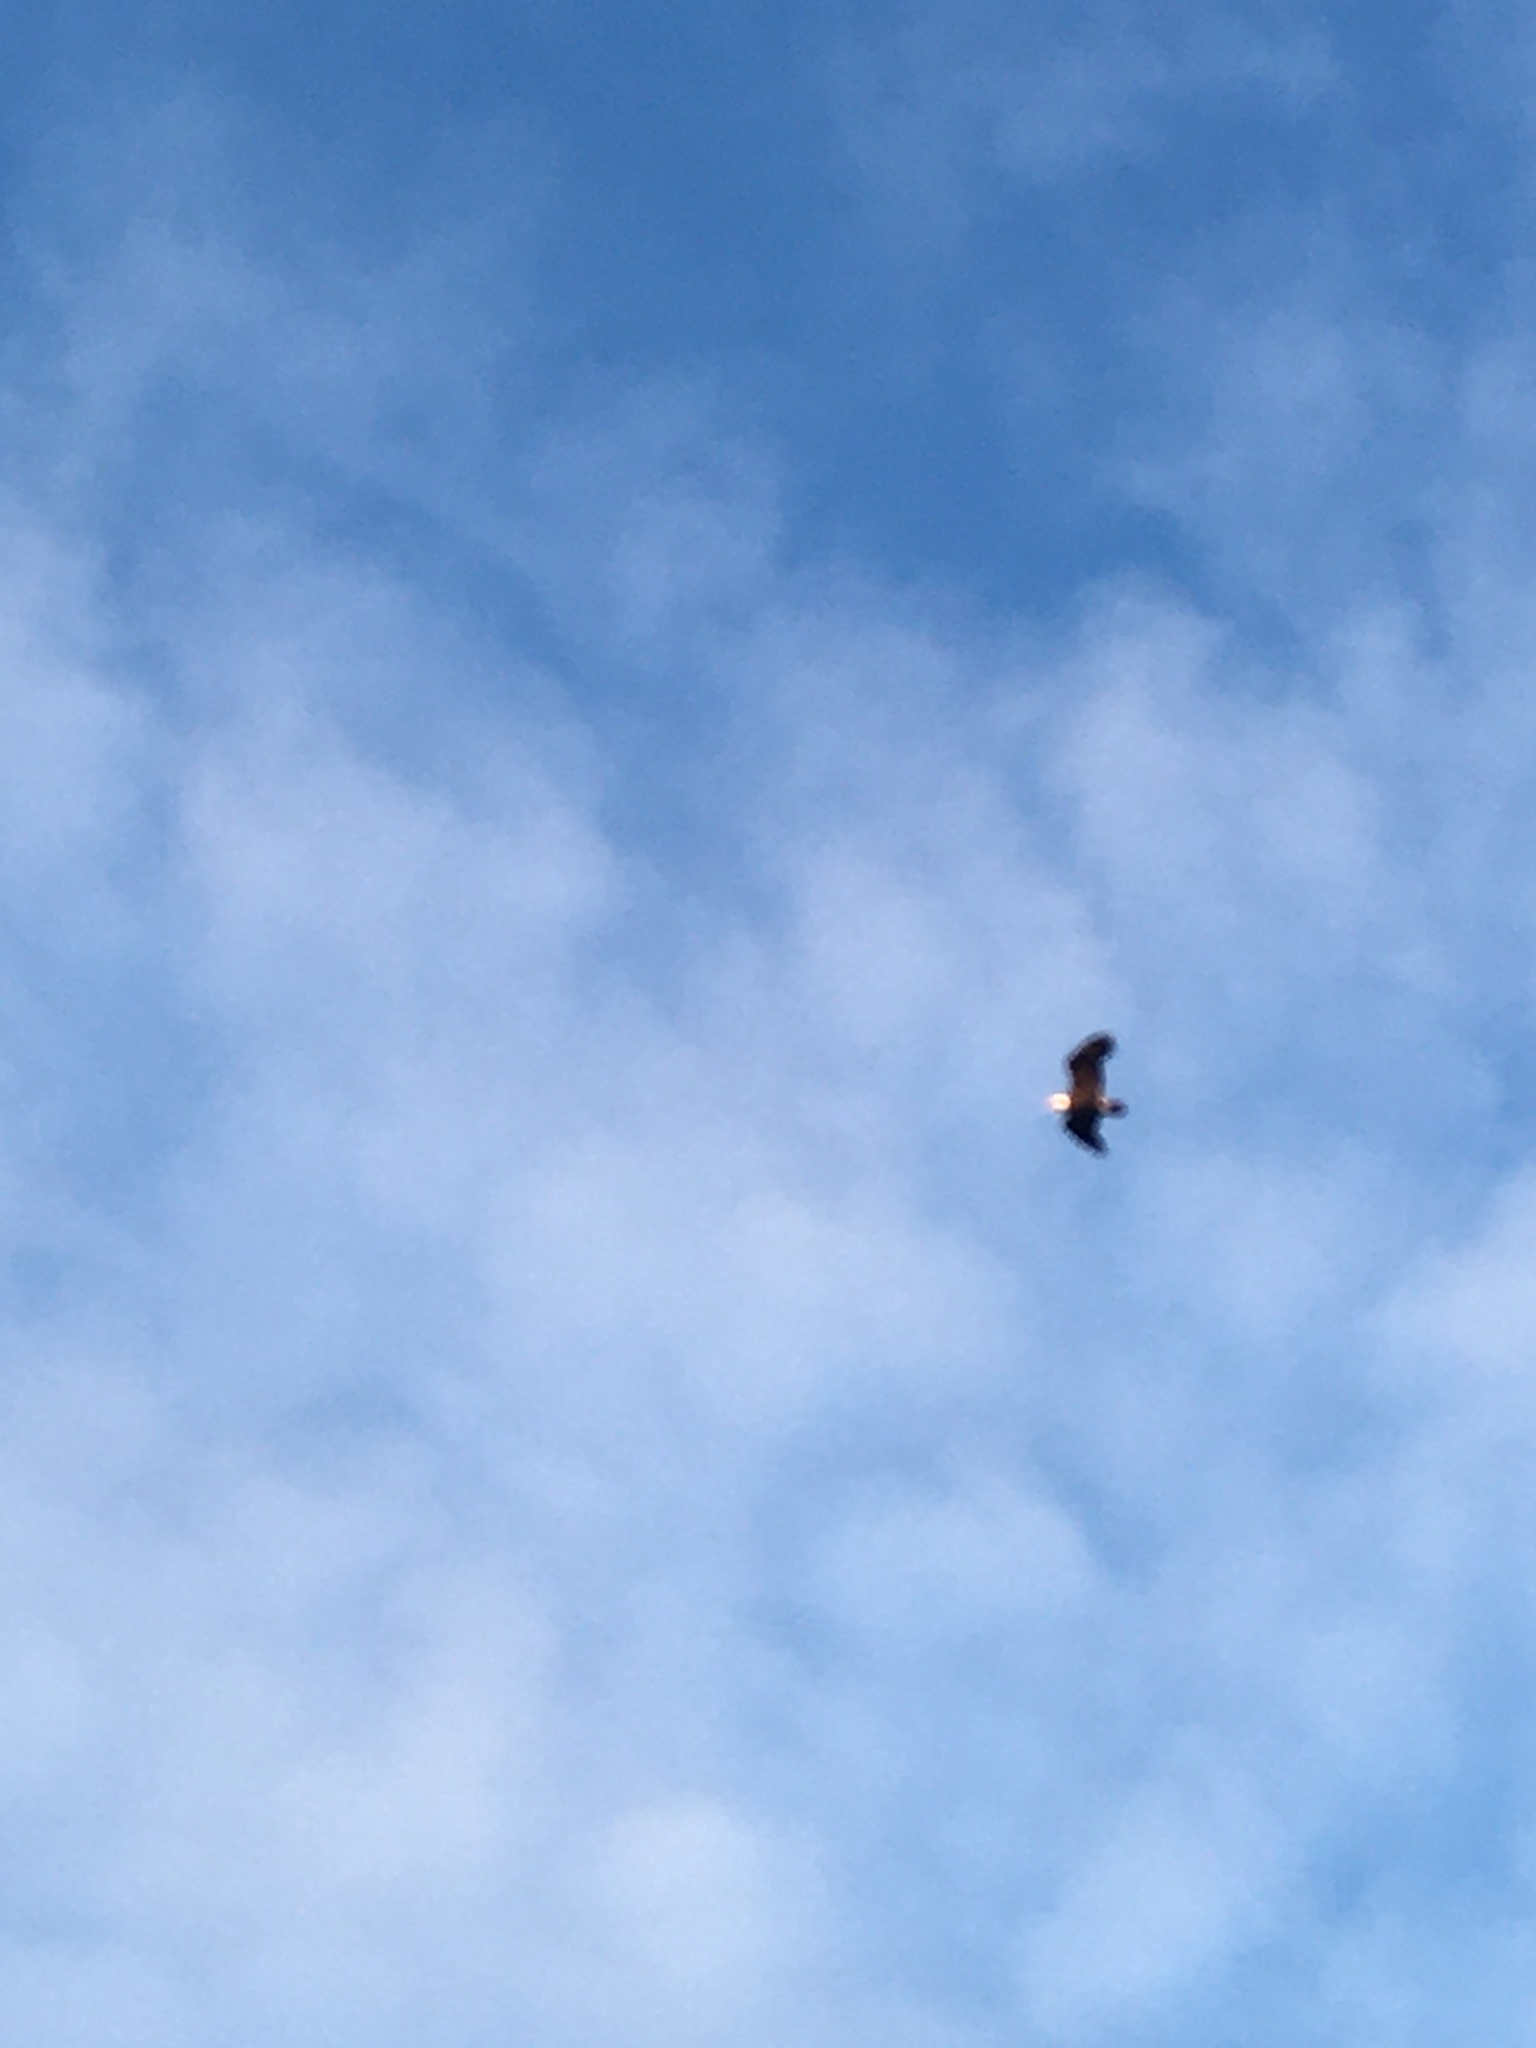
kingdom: Animalia
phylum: Chordata
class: Aves
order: Accipitriformes
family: Accipitridae
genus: Haliaeetus
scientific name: Haliaeetus leucocephalus
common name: Bald eagle
